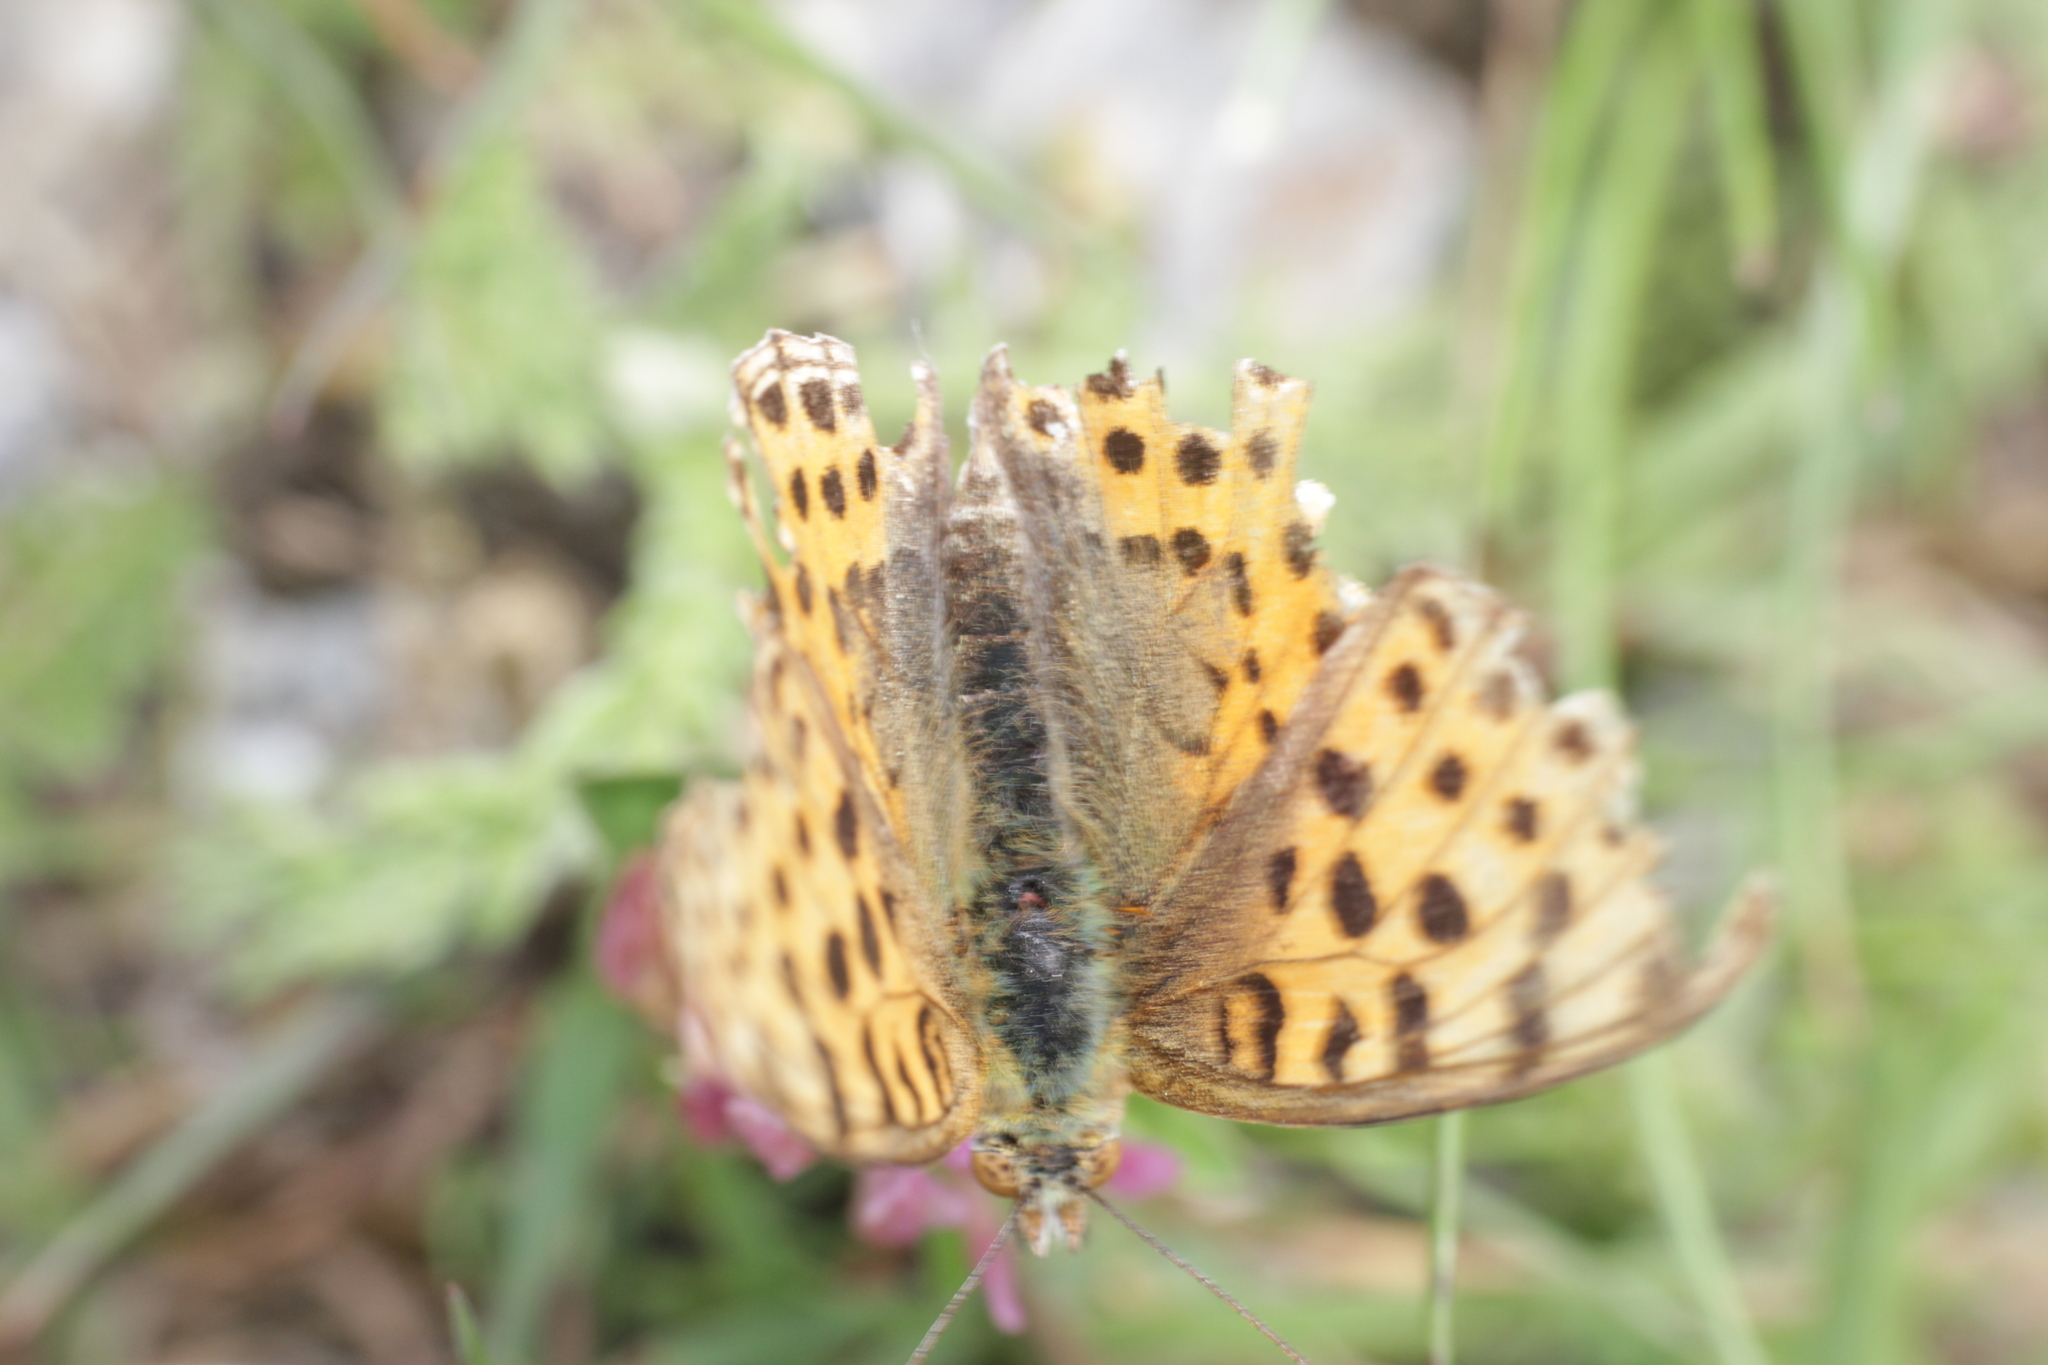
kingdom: Animalia
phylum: Arthropoda
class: Insecta
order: Lepidoptera
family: Nymphalidae
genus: Issoria
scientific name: Issoria lathonia
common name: Queen of spain fritillary
